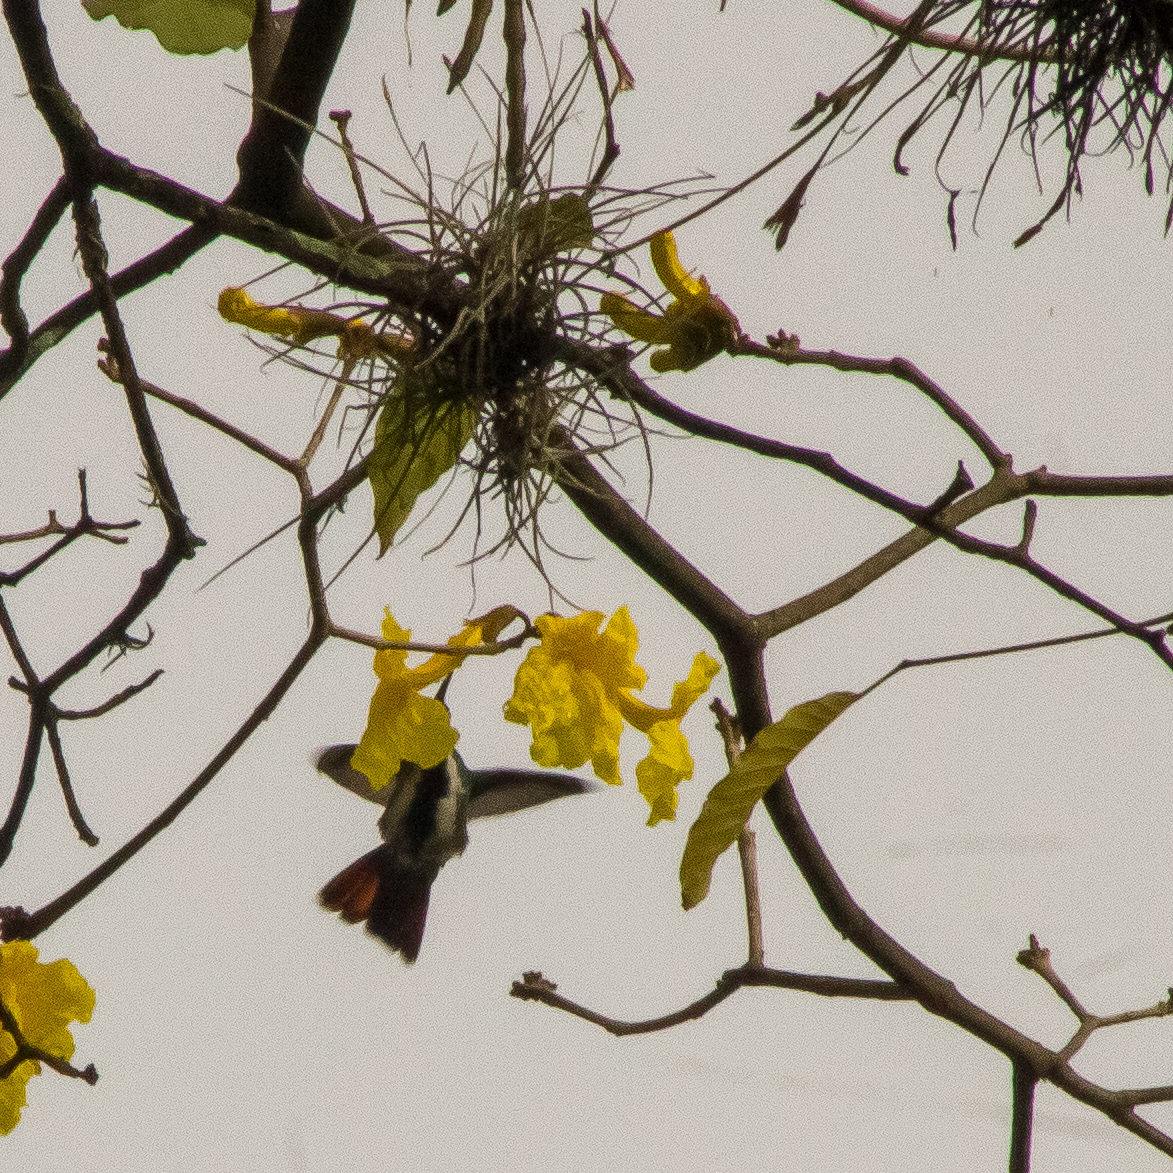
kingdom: Animalia
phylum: Chordata
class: Aves
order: Apodiformes
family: Trochilidae
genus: Anthracothorax
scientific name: Anthracothorax nigricollis
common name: Black-throated mango
